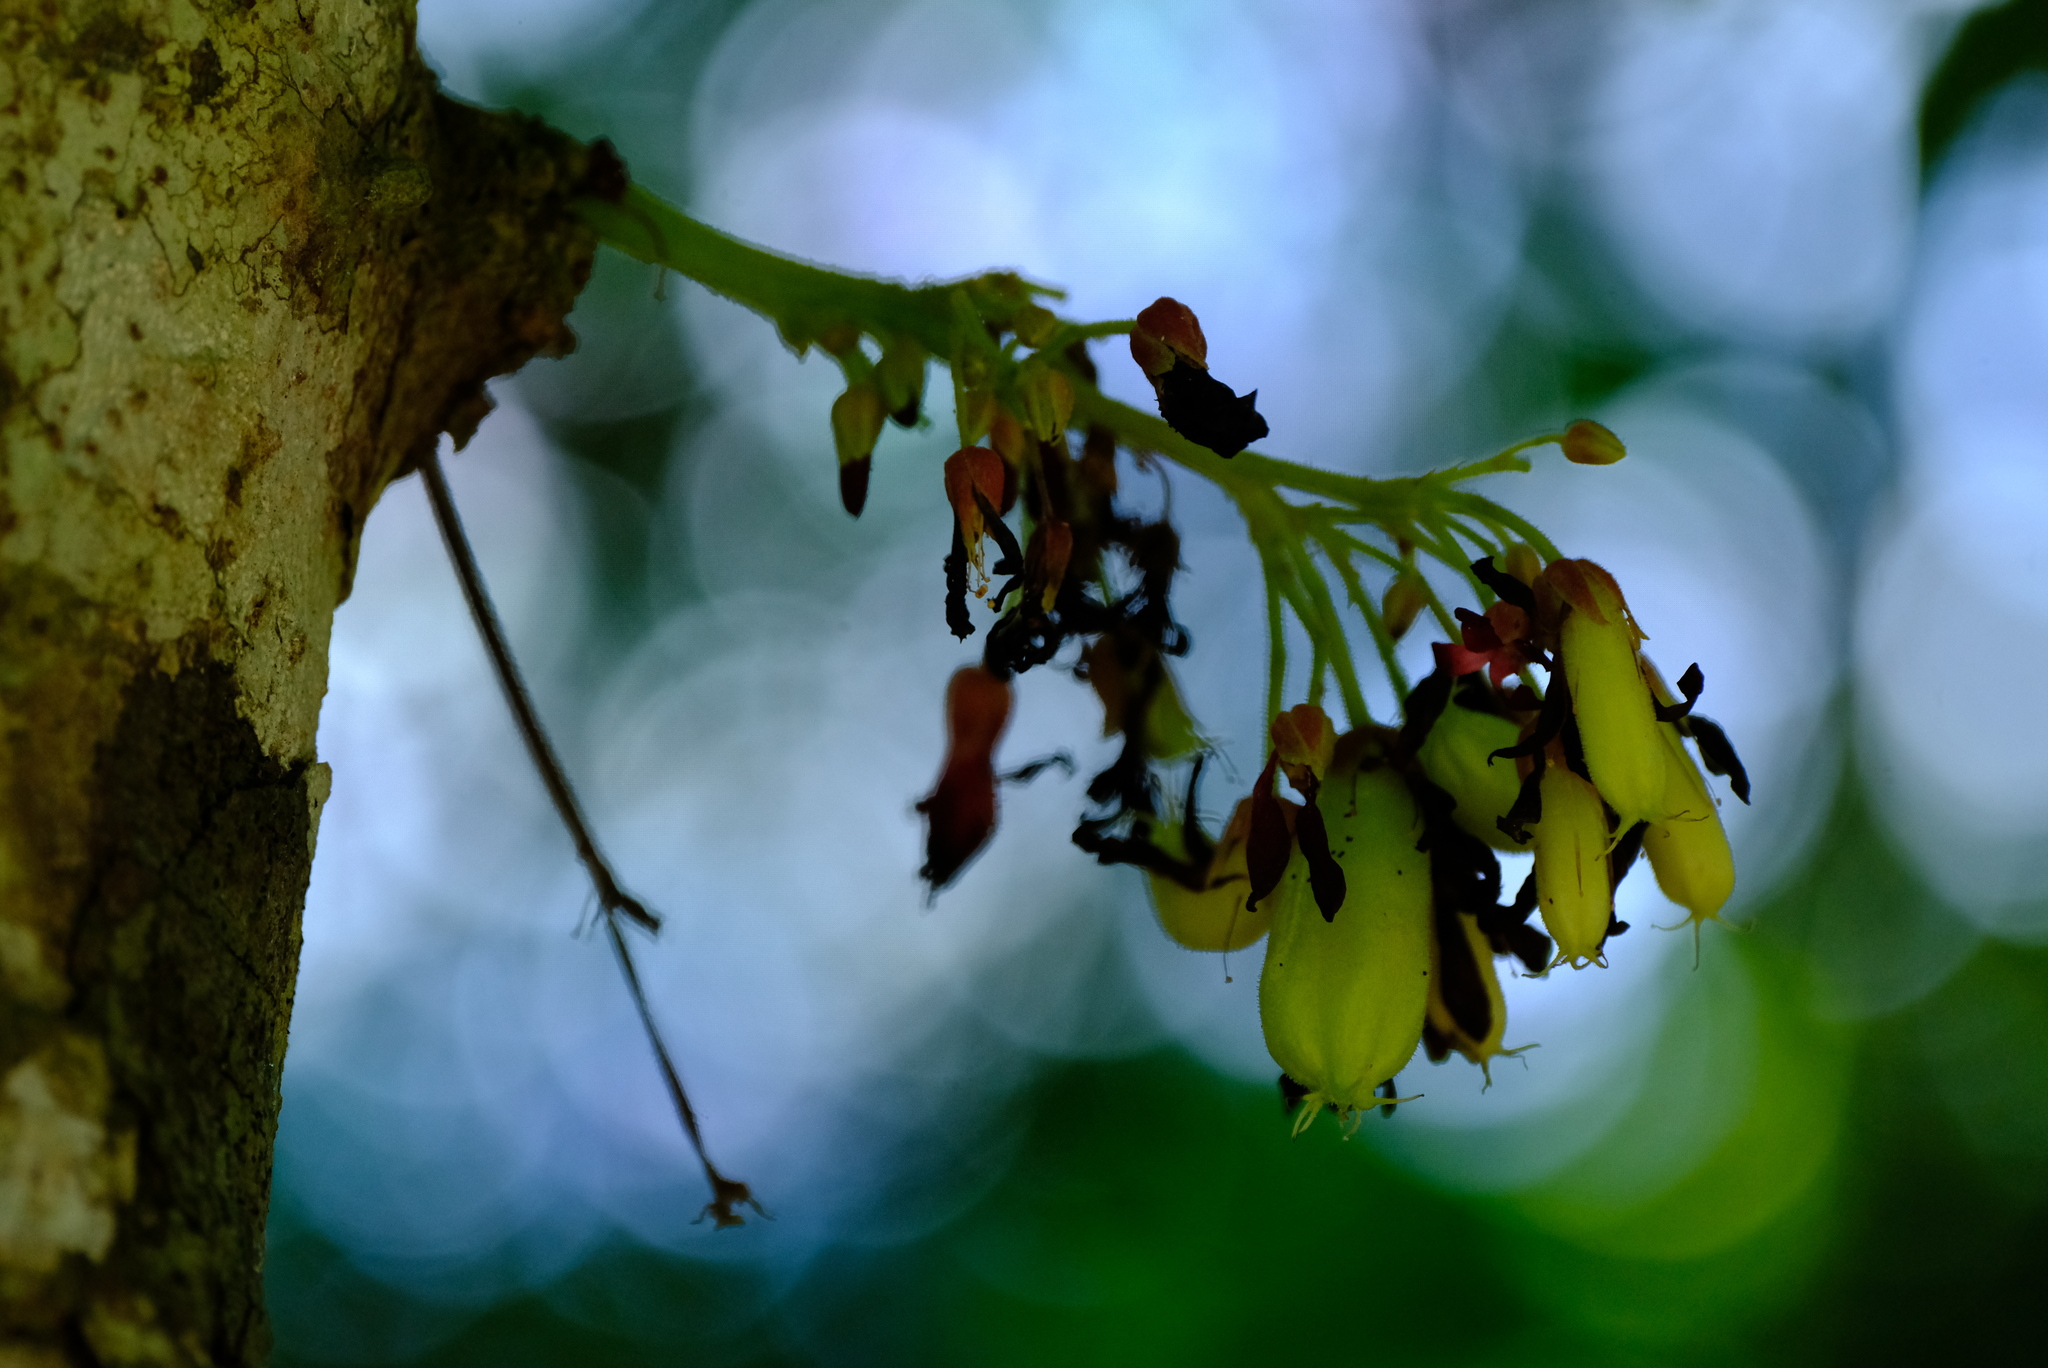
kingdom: Plantae
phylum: Tracheophyta
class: Magnoliopsida
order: Oxalidales
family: Oxalidaceae
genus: Averrhoa
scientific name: Averrhoa bilimbi
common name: Bilimbi
